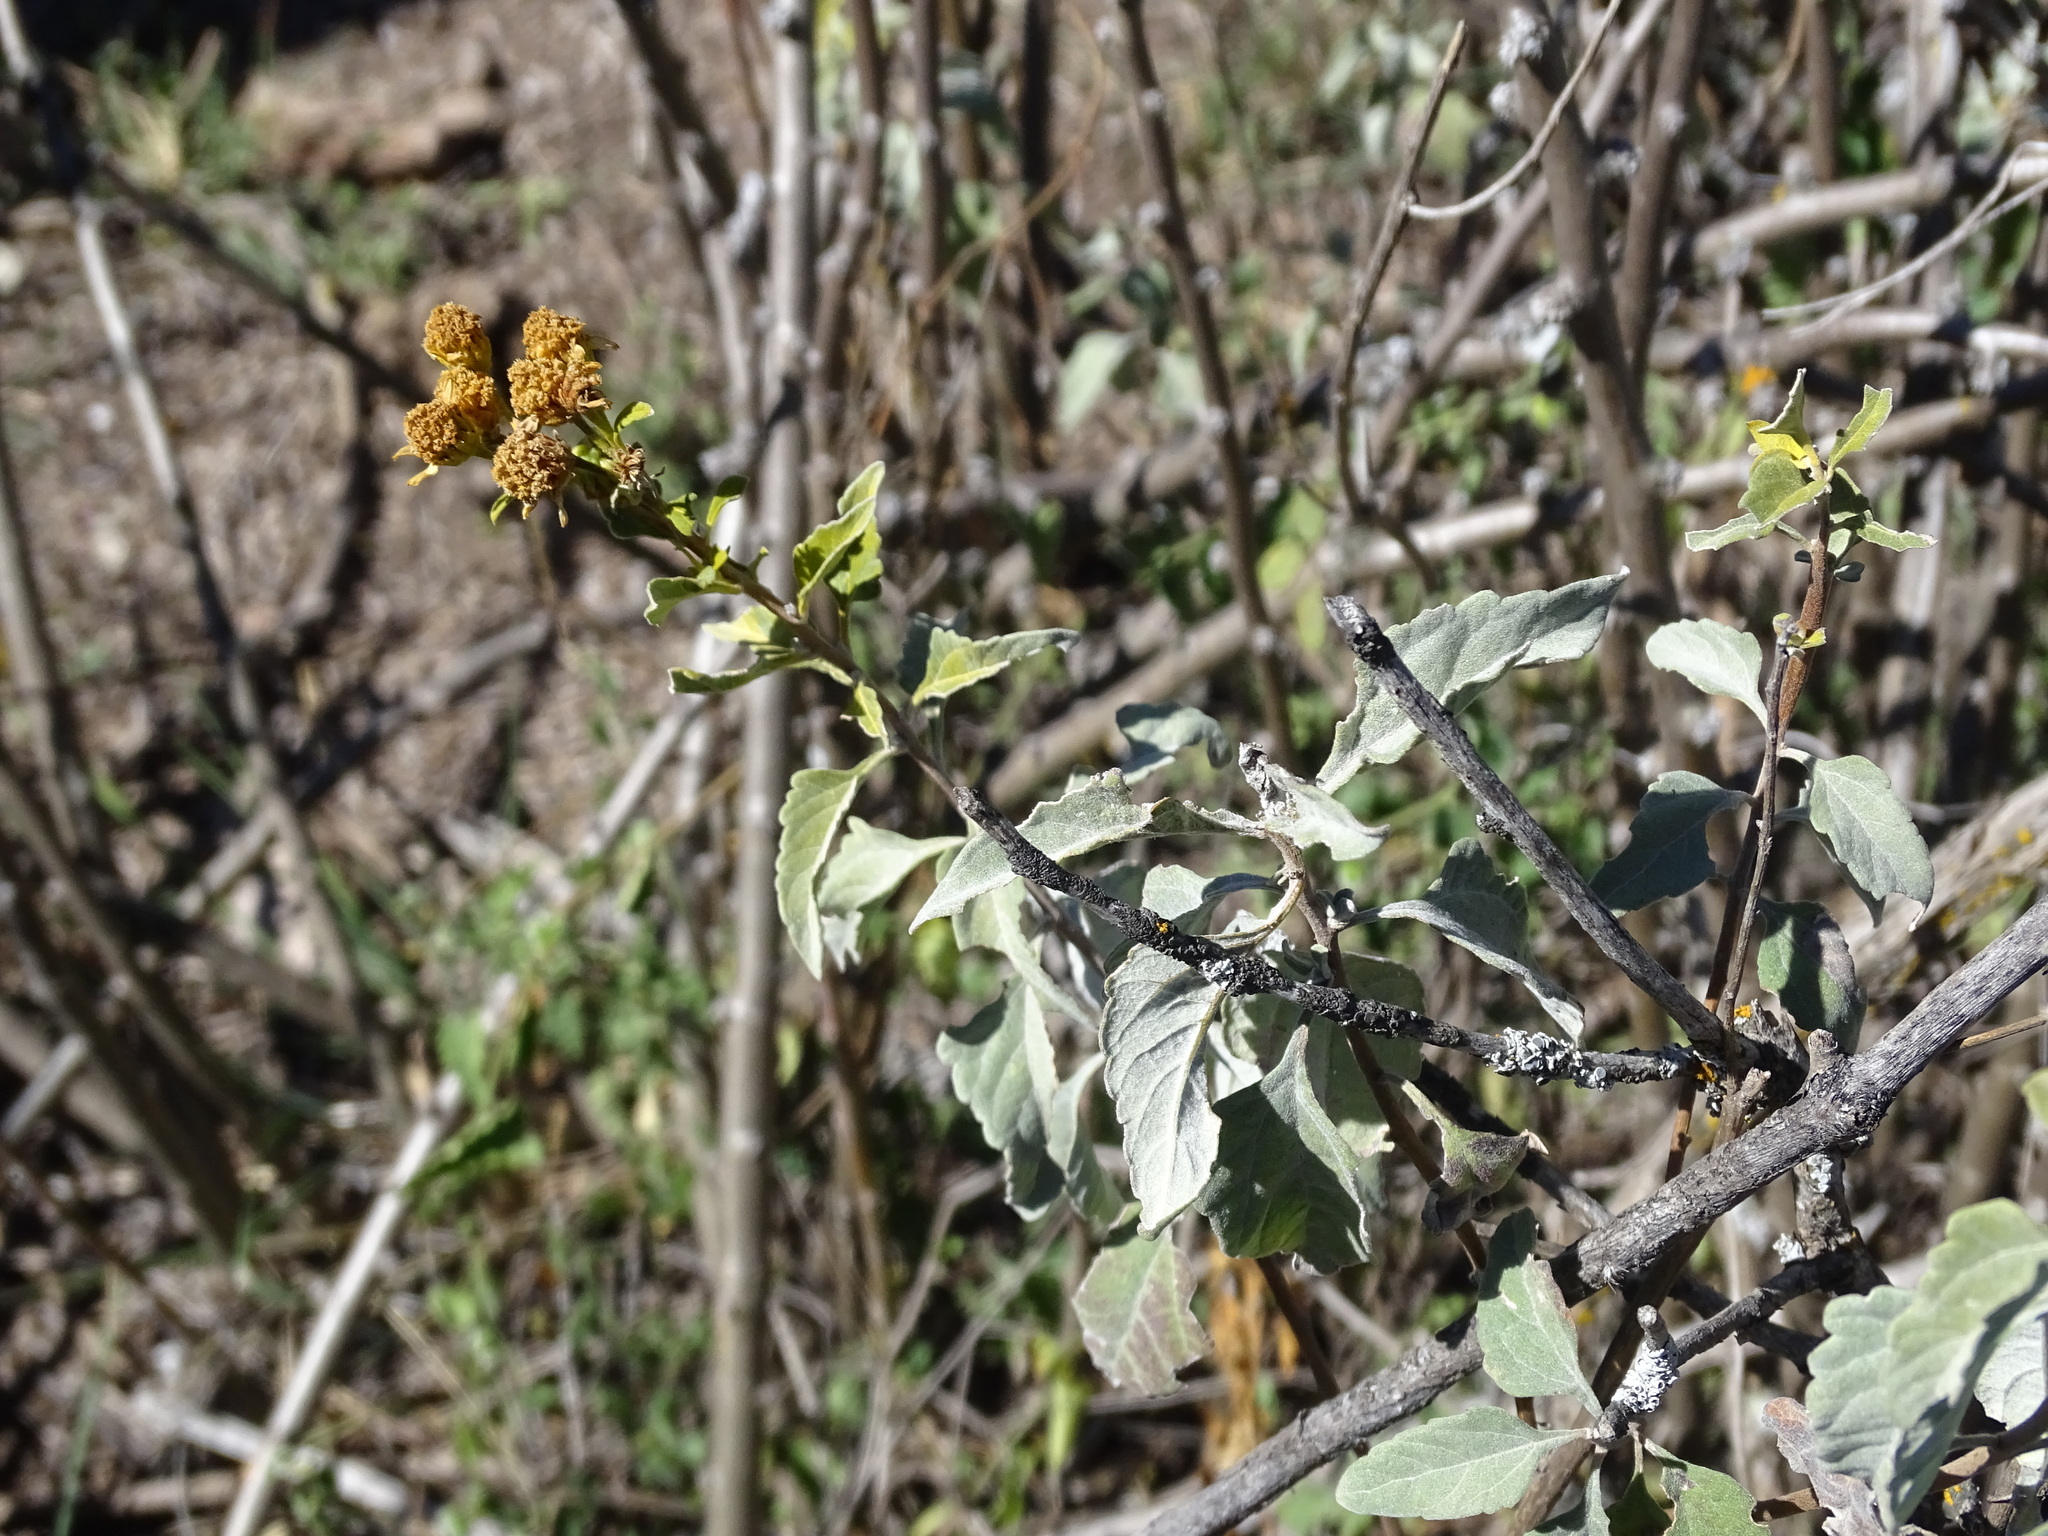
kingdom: Plantae
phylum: Tracheophyta
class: Magnoliopsida
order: Asterales
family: Asteraceae
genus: Zaluzania
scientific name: Zaluzania augusta
